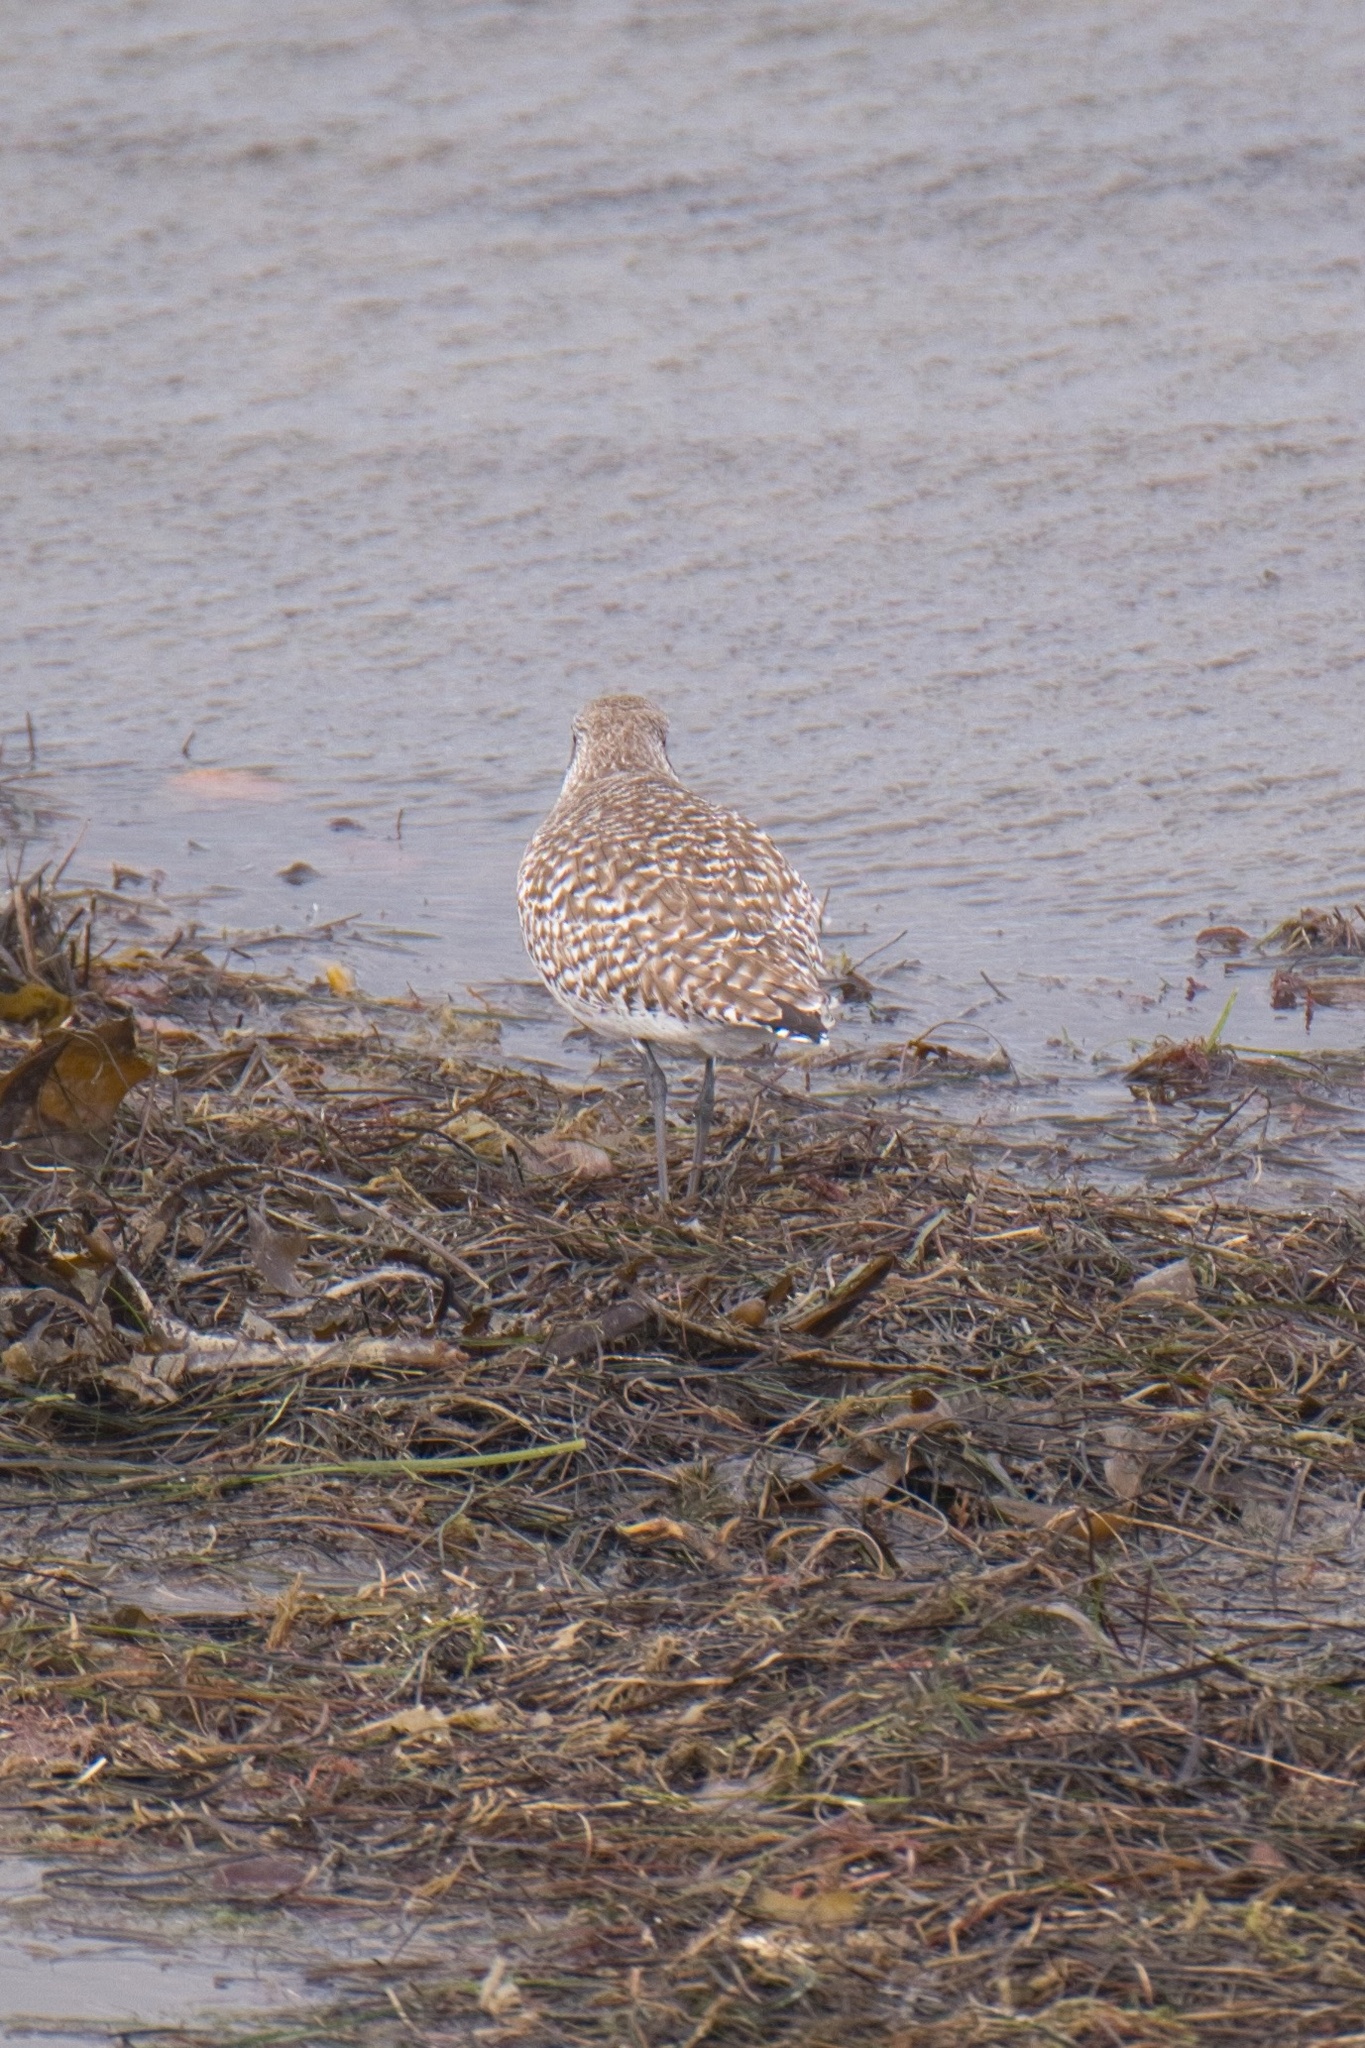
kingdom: Animalia
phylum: Chordata
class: Aves
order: Charadriiformes
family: Charadriidae
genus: Pluvialis
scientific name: Pluvialis squatarola
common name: Grey plover
